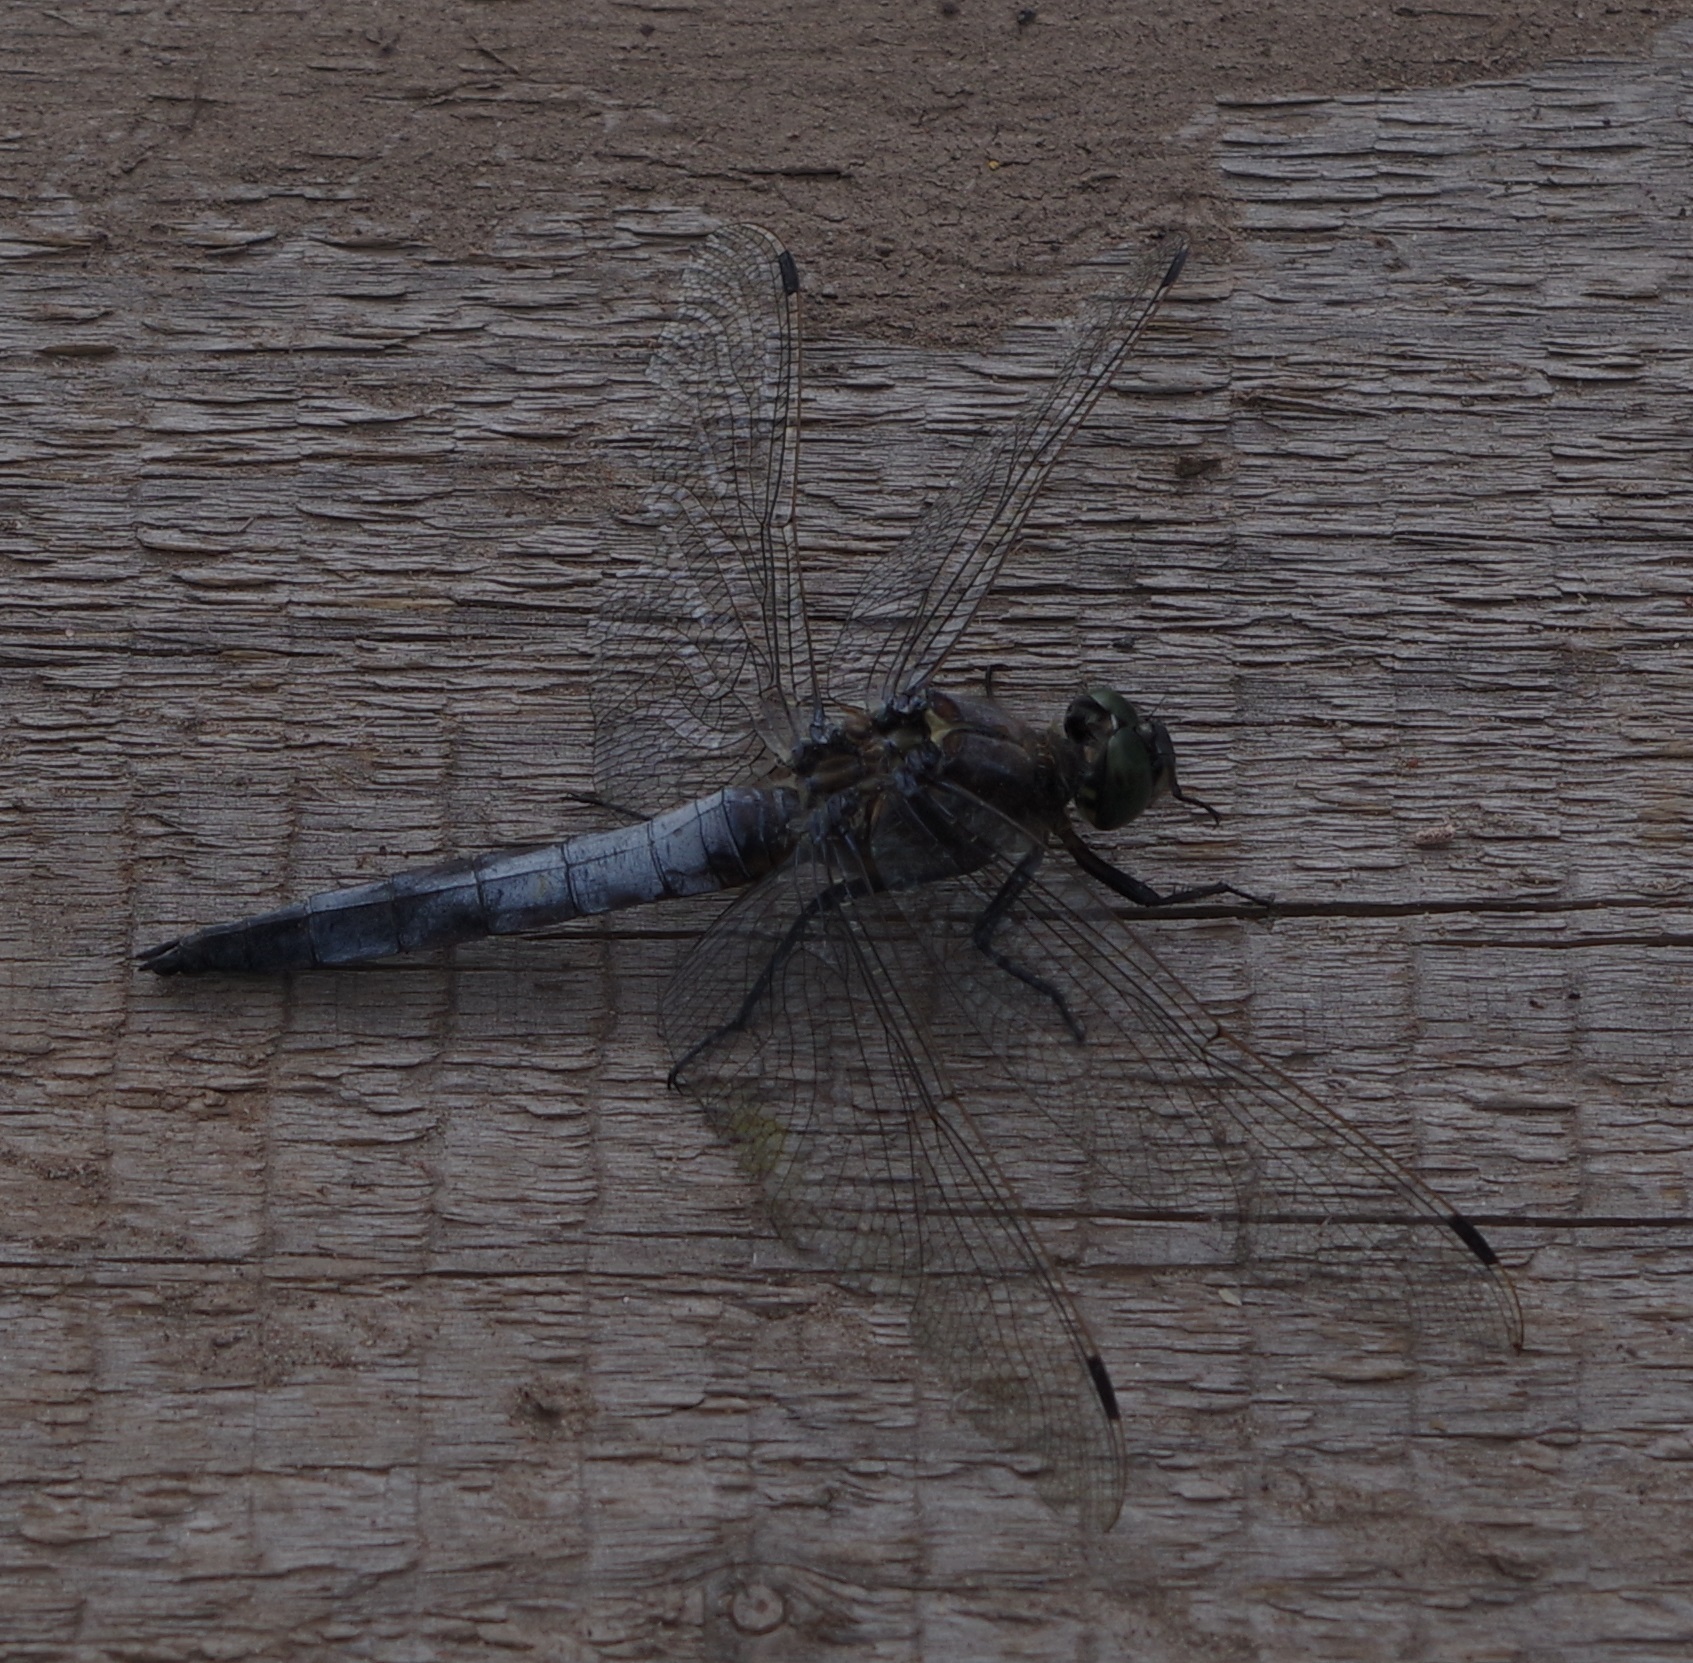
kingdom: Animalia
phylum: Arthropoda
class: Insecta
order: Odonata
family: Libellulidae
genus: Orthetrum
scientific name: Orthetrum cancellatum
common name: Black-tailed skimmer
